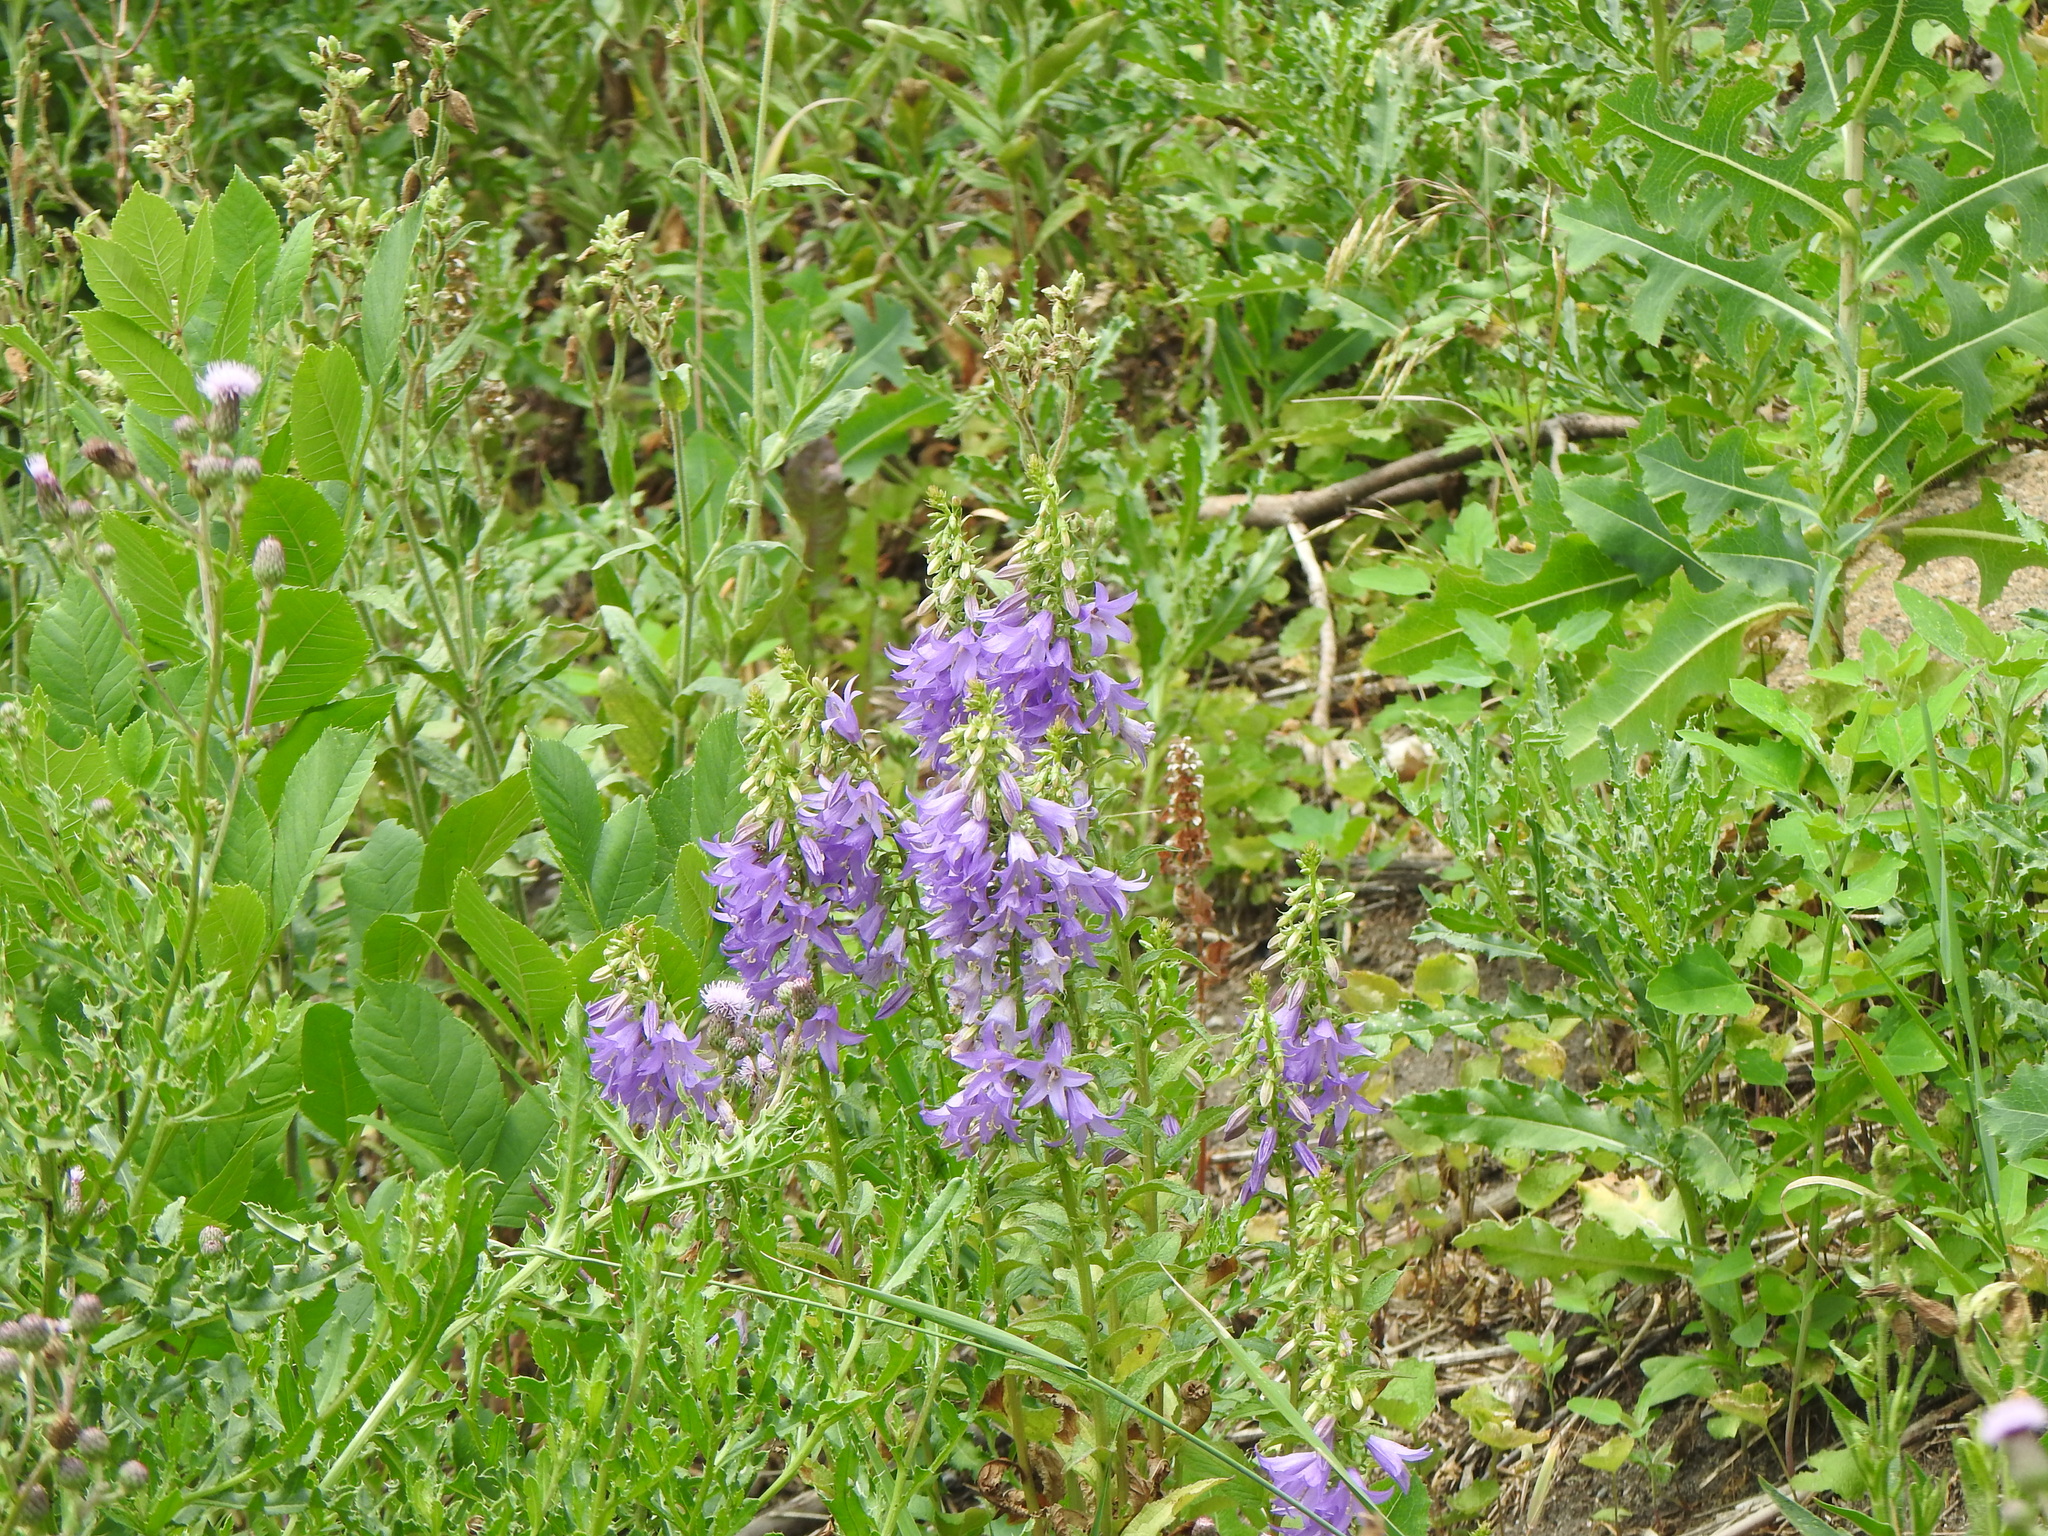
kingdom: Plantae
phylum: Tracheophyta
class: Magnoliopsida
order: Asterales
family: Campanulaceae
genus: Campanula
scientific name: Campanula rapunculoides
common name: Creeping bellflower
